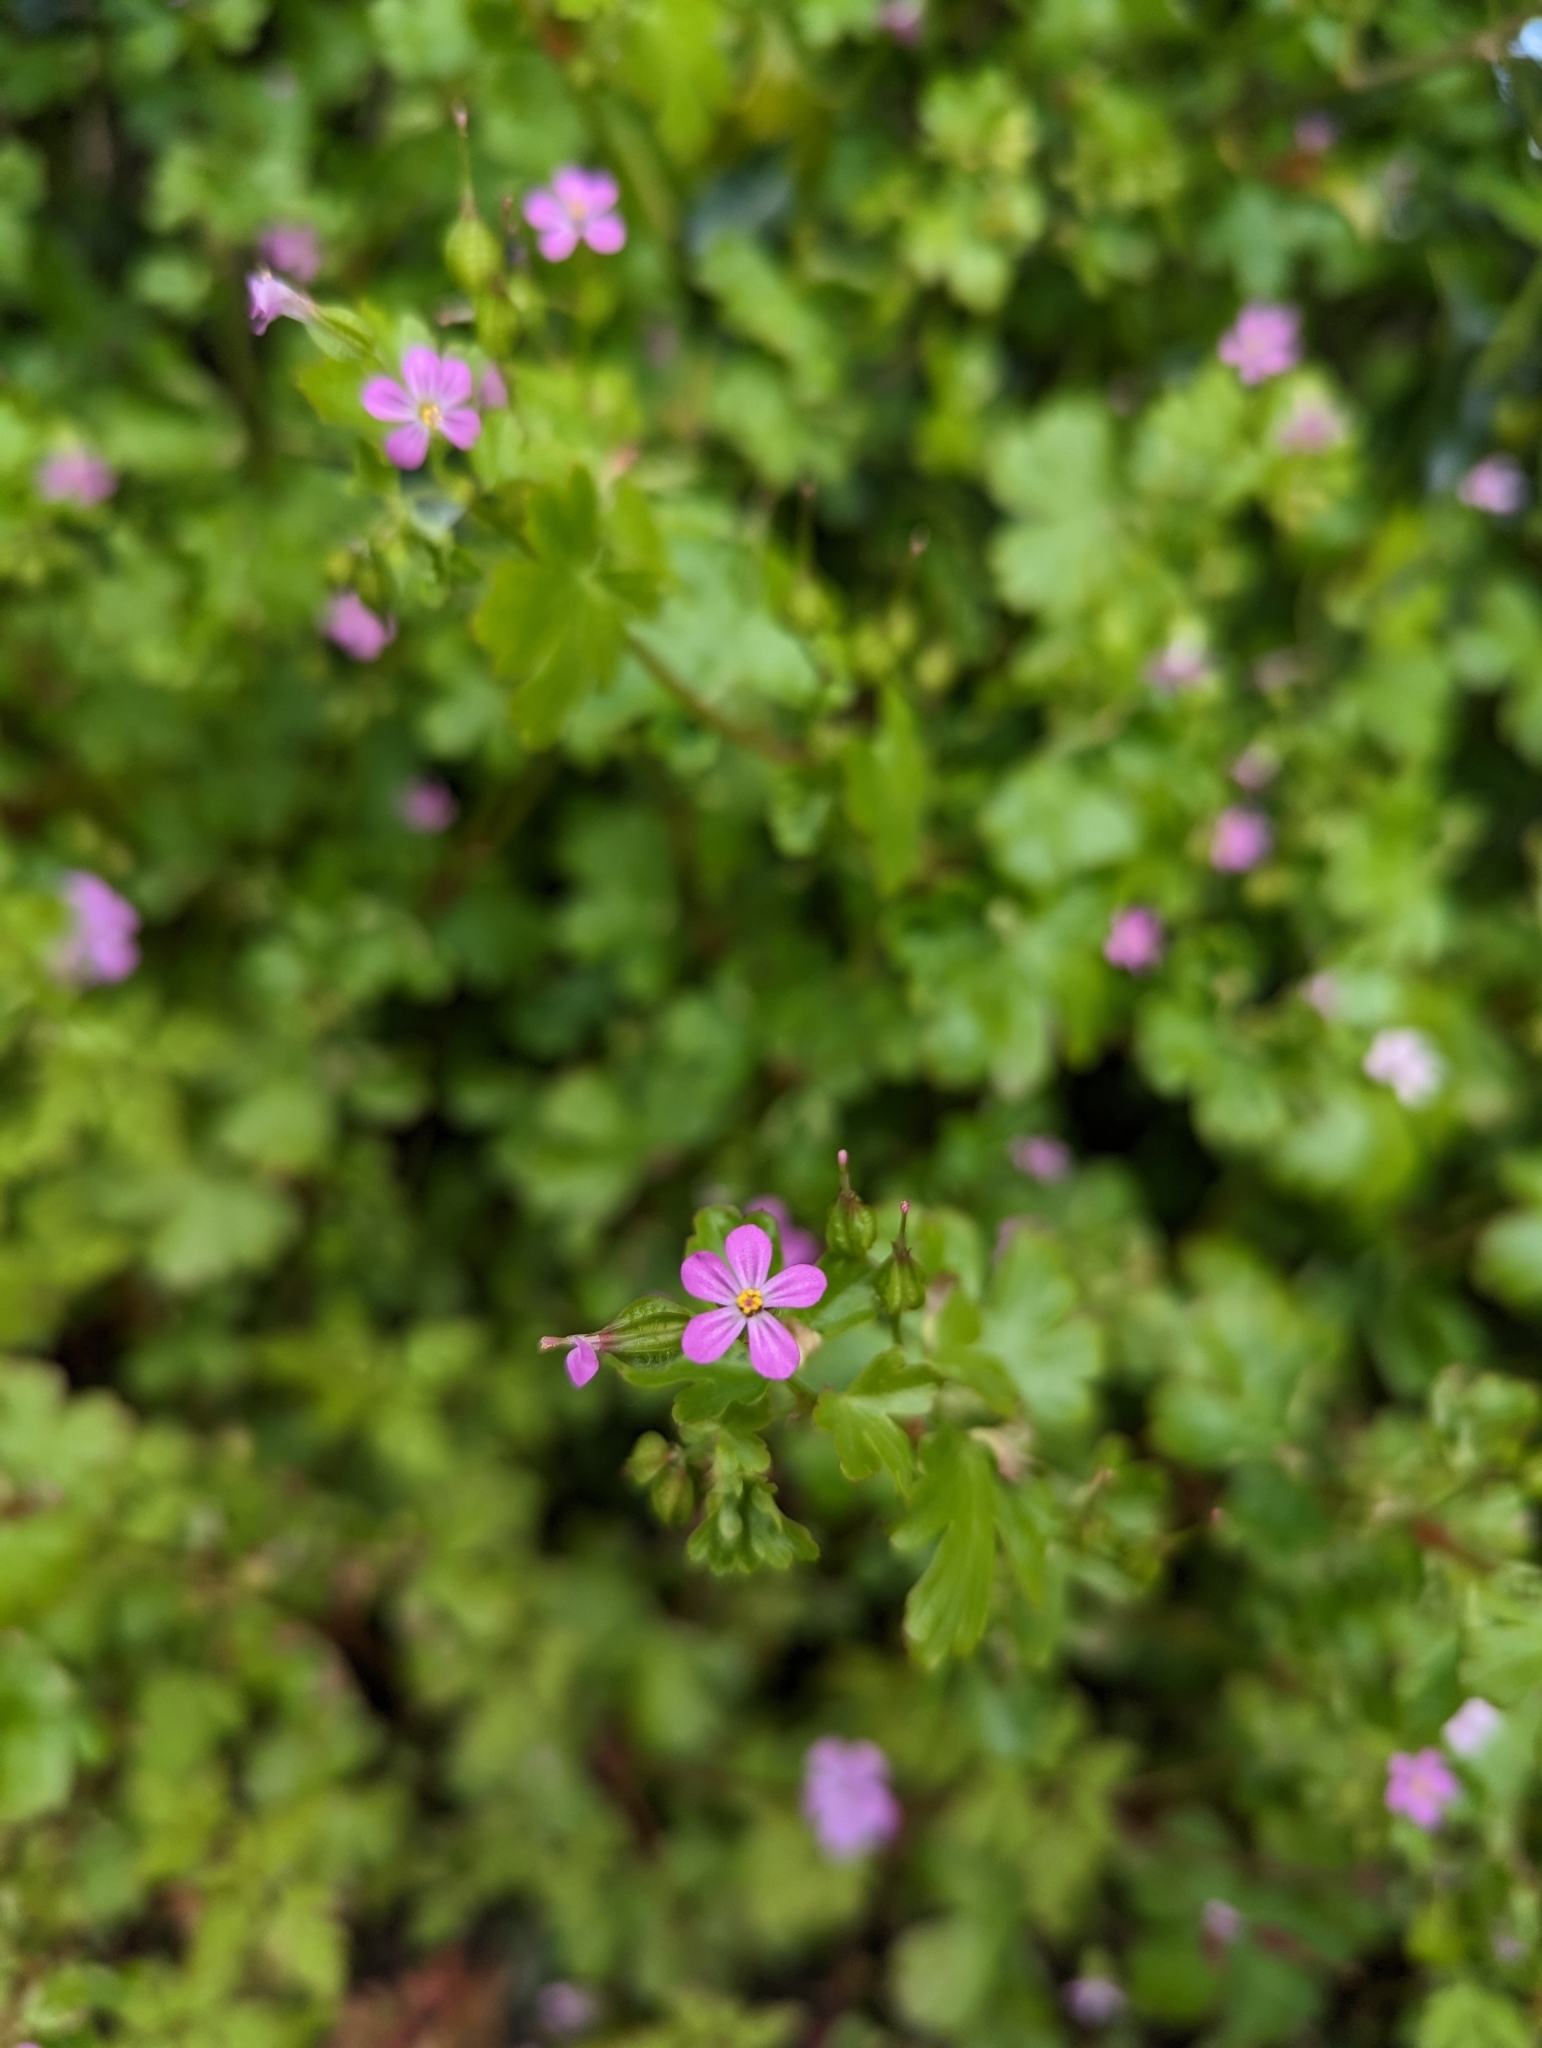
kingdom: Plantae
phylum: Tracheophyta
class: Magnoliopsida
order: Geraniales
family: Geraniaceae
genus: Geranium
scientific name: Geranium lucidum
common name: Shining crane's-bill
